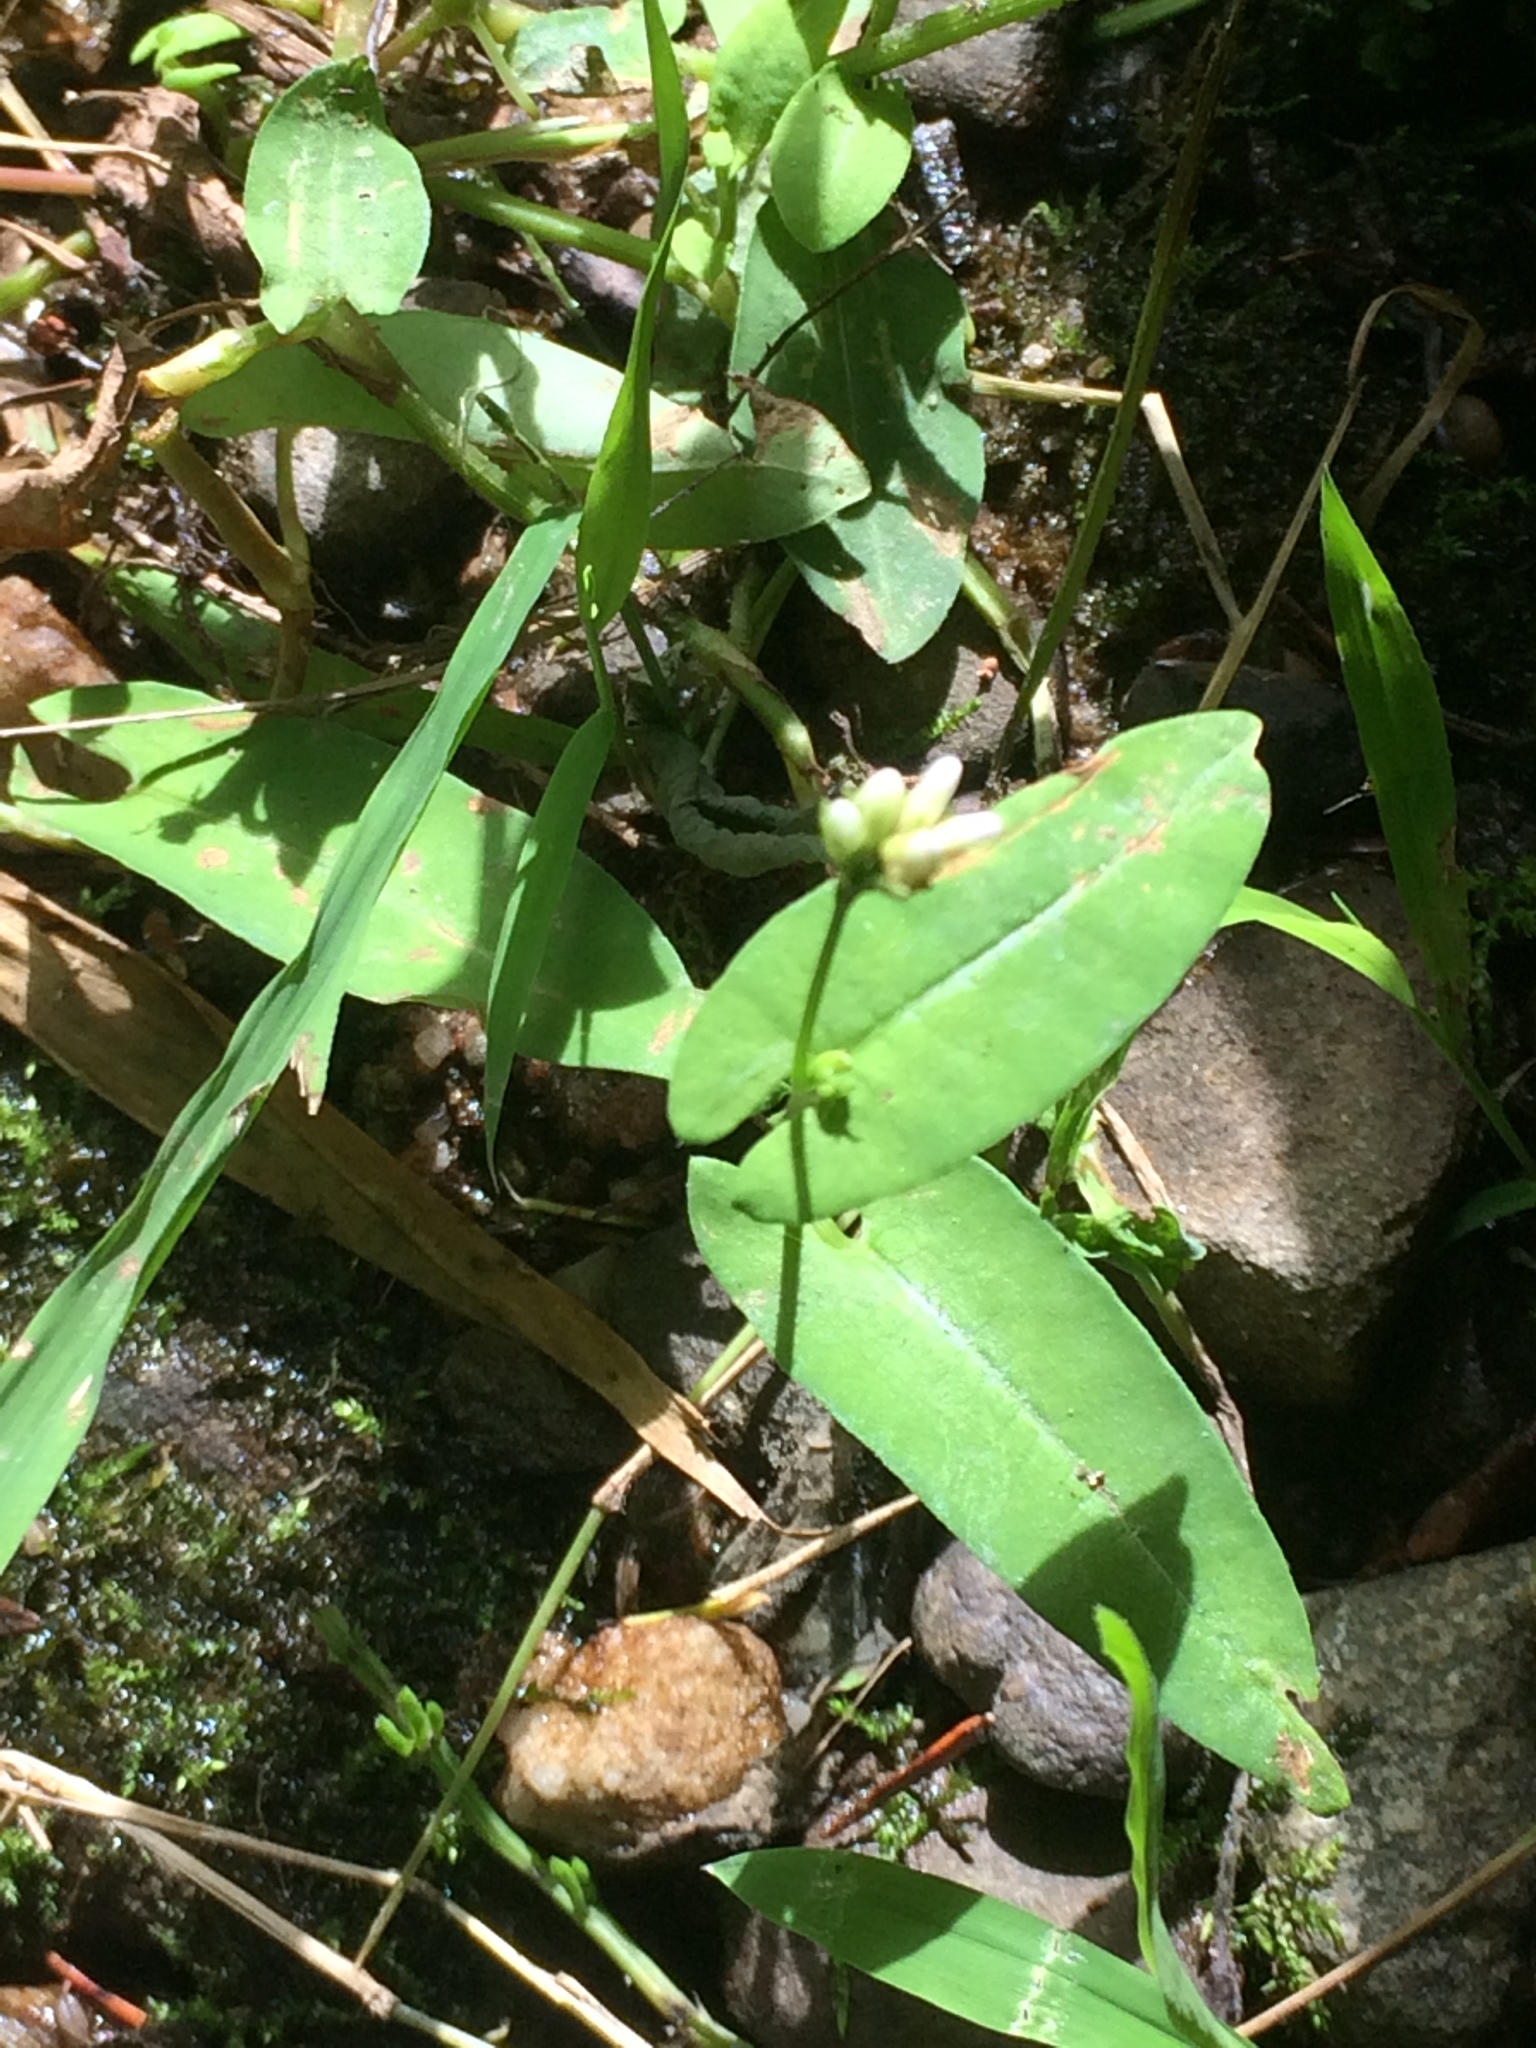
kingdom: Plantae
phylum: Tracheophyta
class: Magnoliopsida
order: Caryophyllales
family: Polygonaceae
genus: Persicaria
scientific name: Persicaria sagittata
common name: American tearthumb
